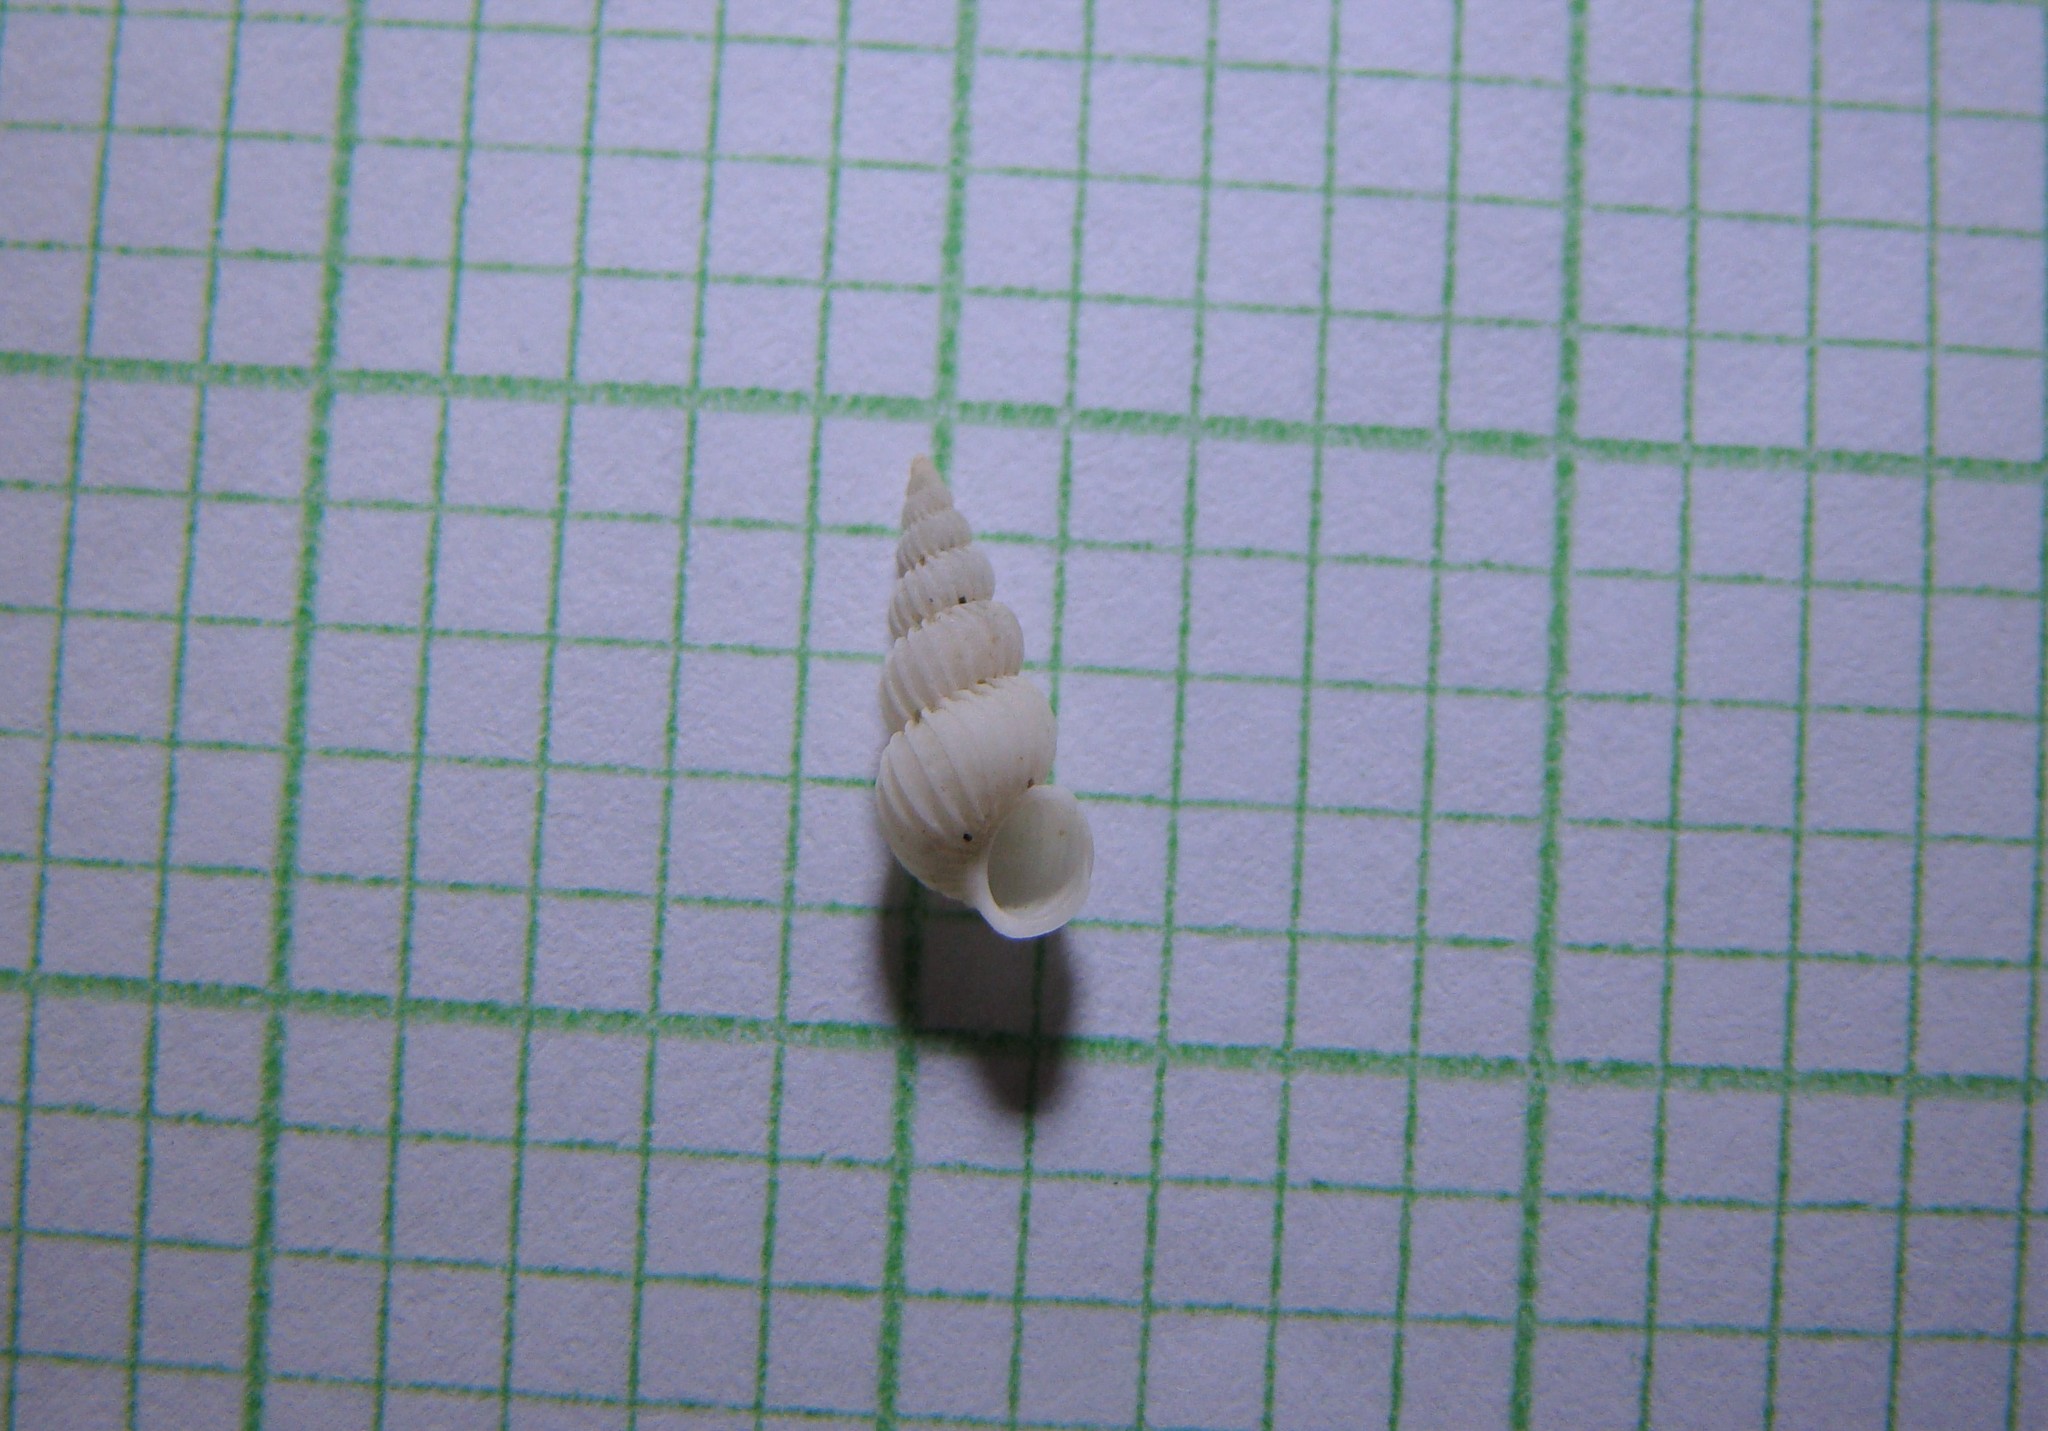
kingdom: Animalia
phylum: Mollusca
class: Gastropoda
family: Epitoniidae
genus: Epitonium
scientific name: Epitonium jukesianum
